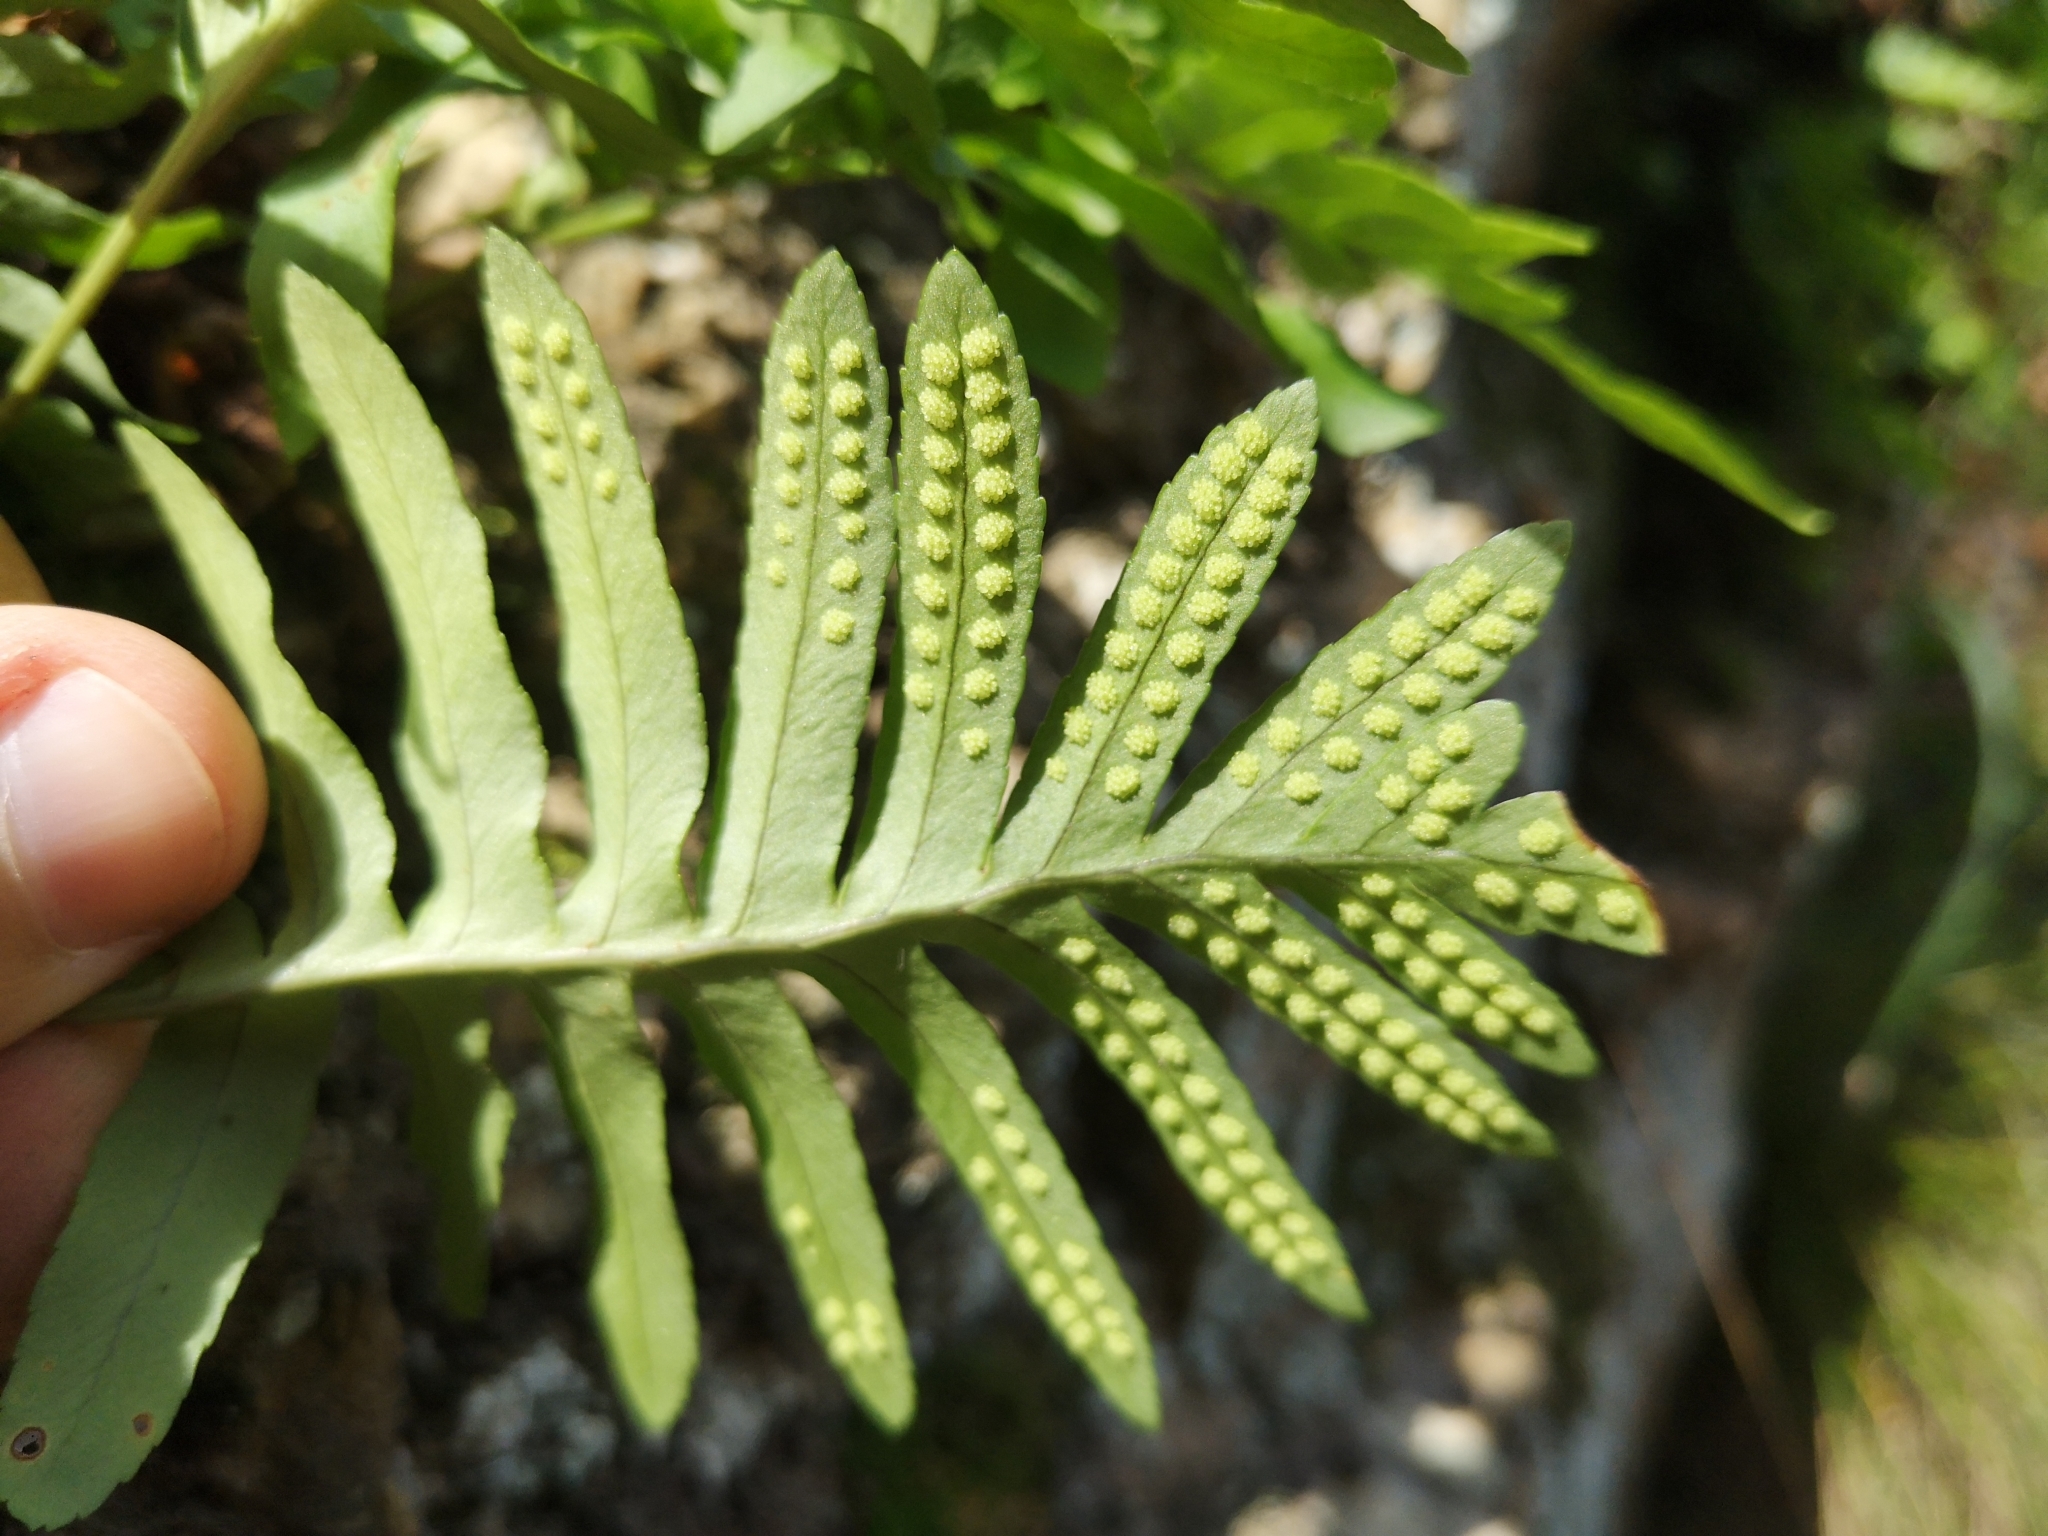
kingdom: Plantae
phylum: Tracheophyta
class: Polypodiopsida
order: Polypodiales
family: Polypodiaceae
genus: Polypodium
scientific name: Polypodium cambricum
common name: Southern polypody
